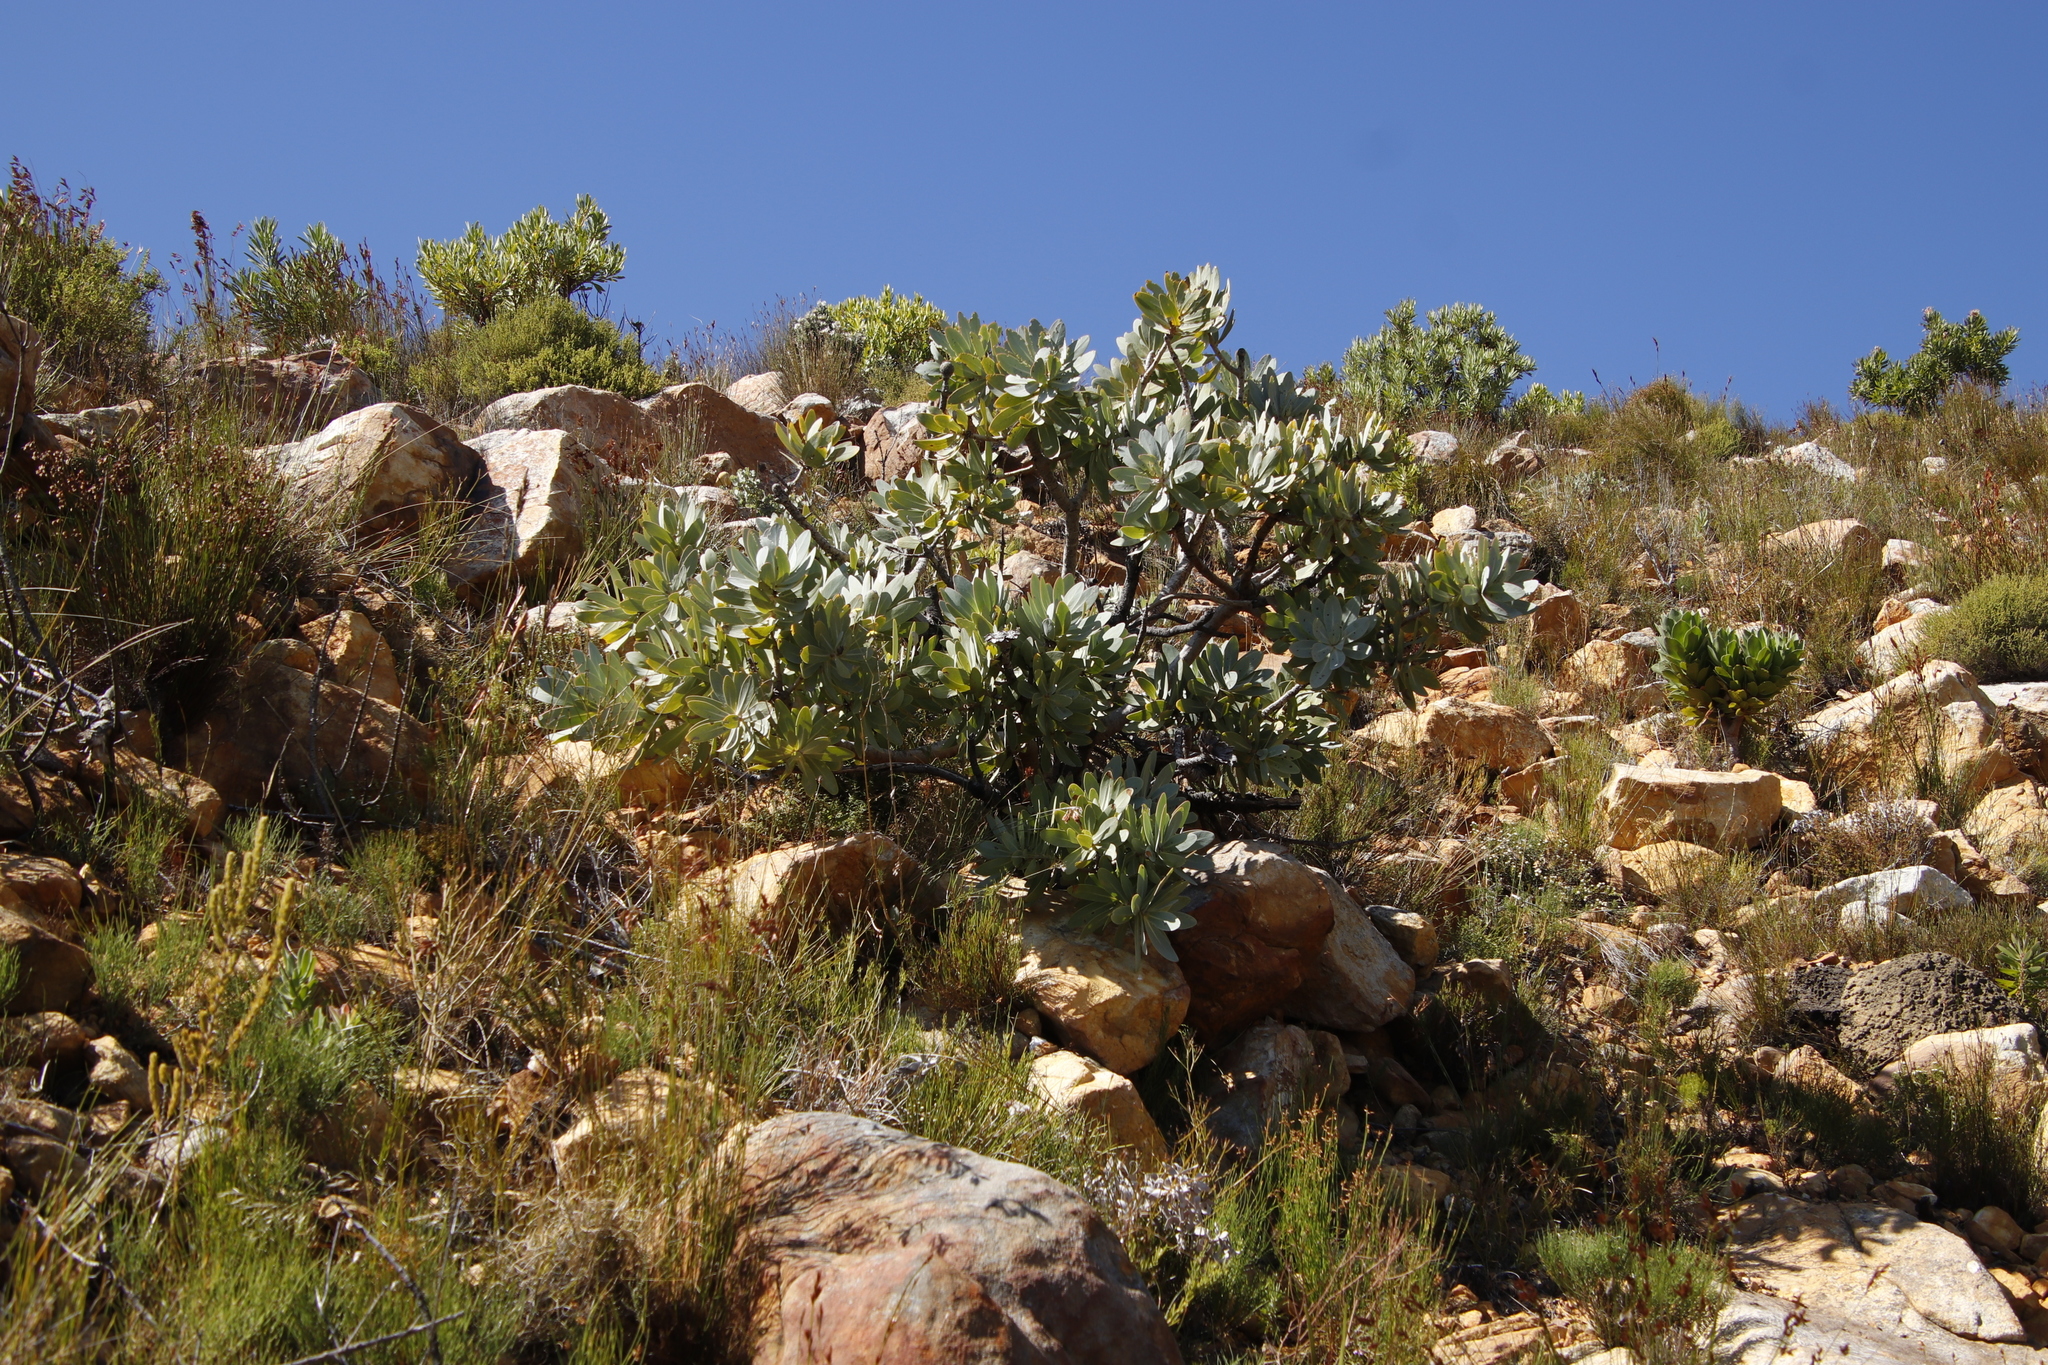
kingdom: Plantae
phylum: Tracheophyta
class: Magnoliopsida
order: Proteales
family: Proteaceae
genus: Protea
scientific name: Protea nitida
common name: Tree protea
